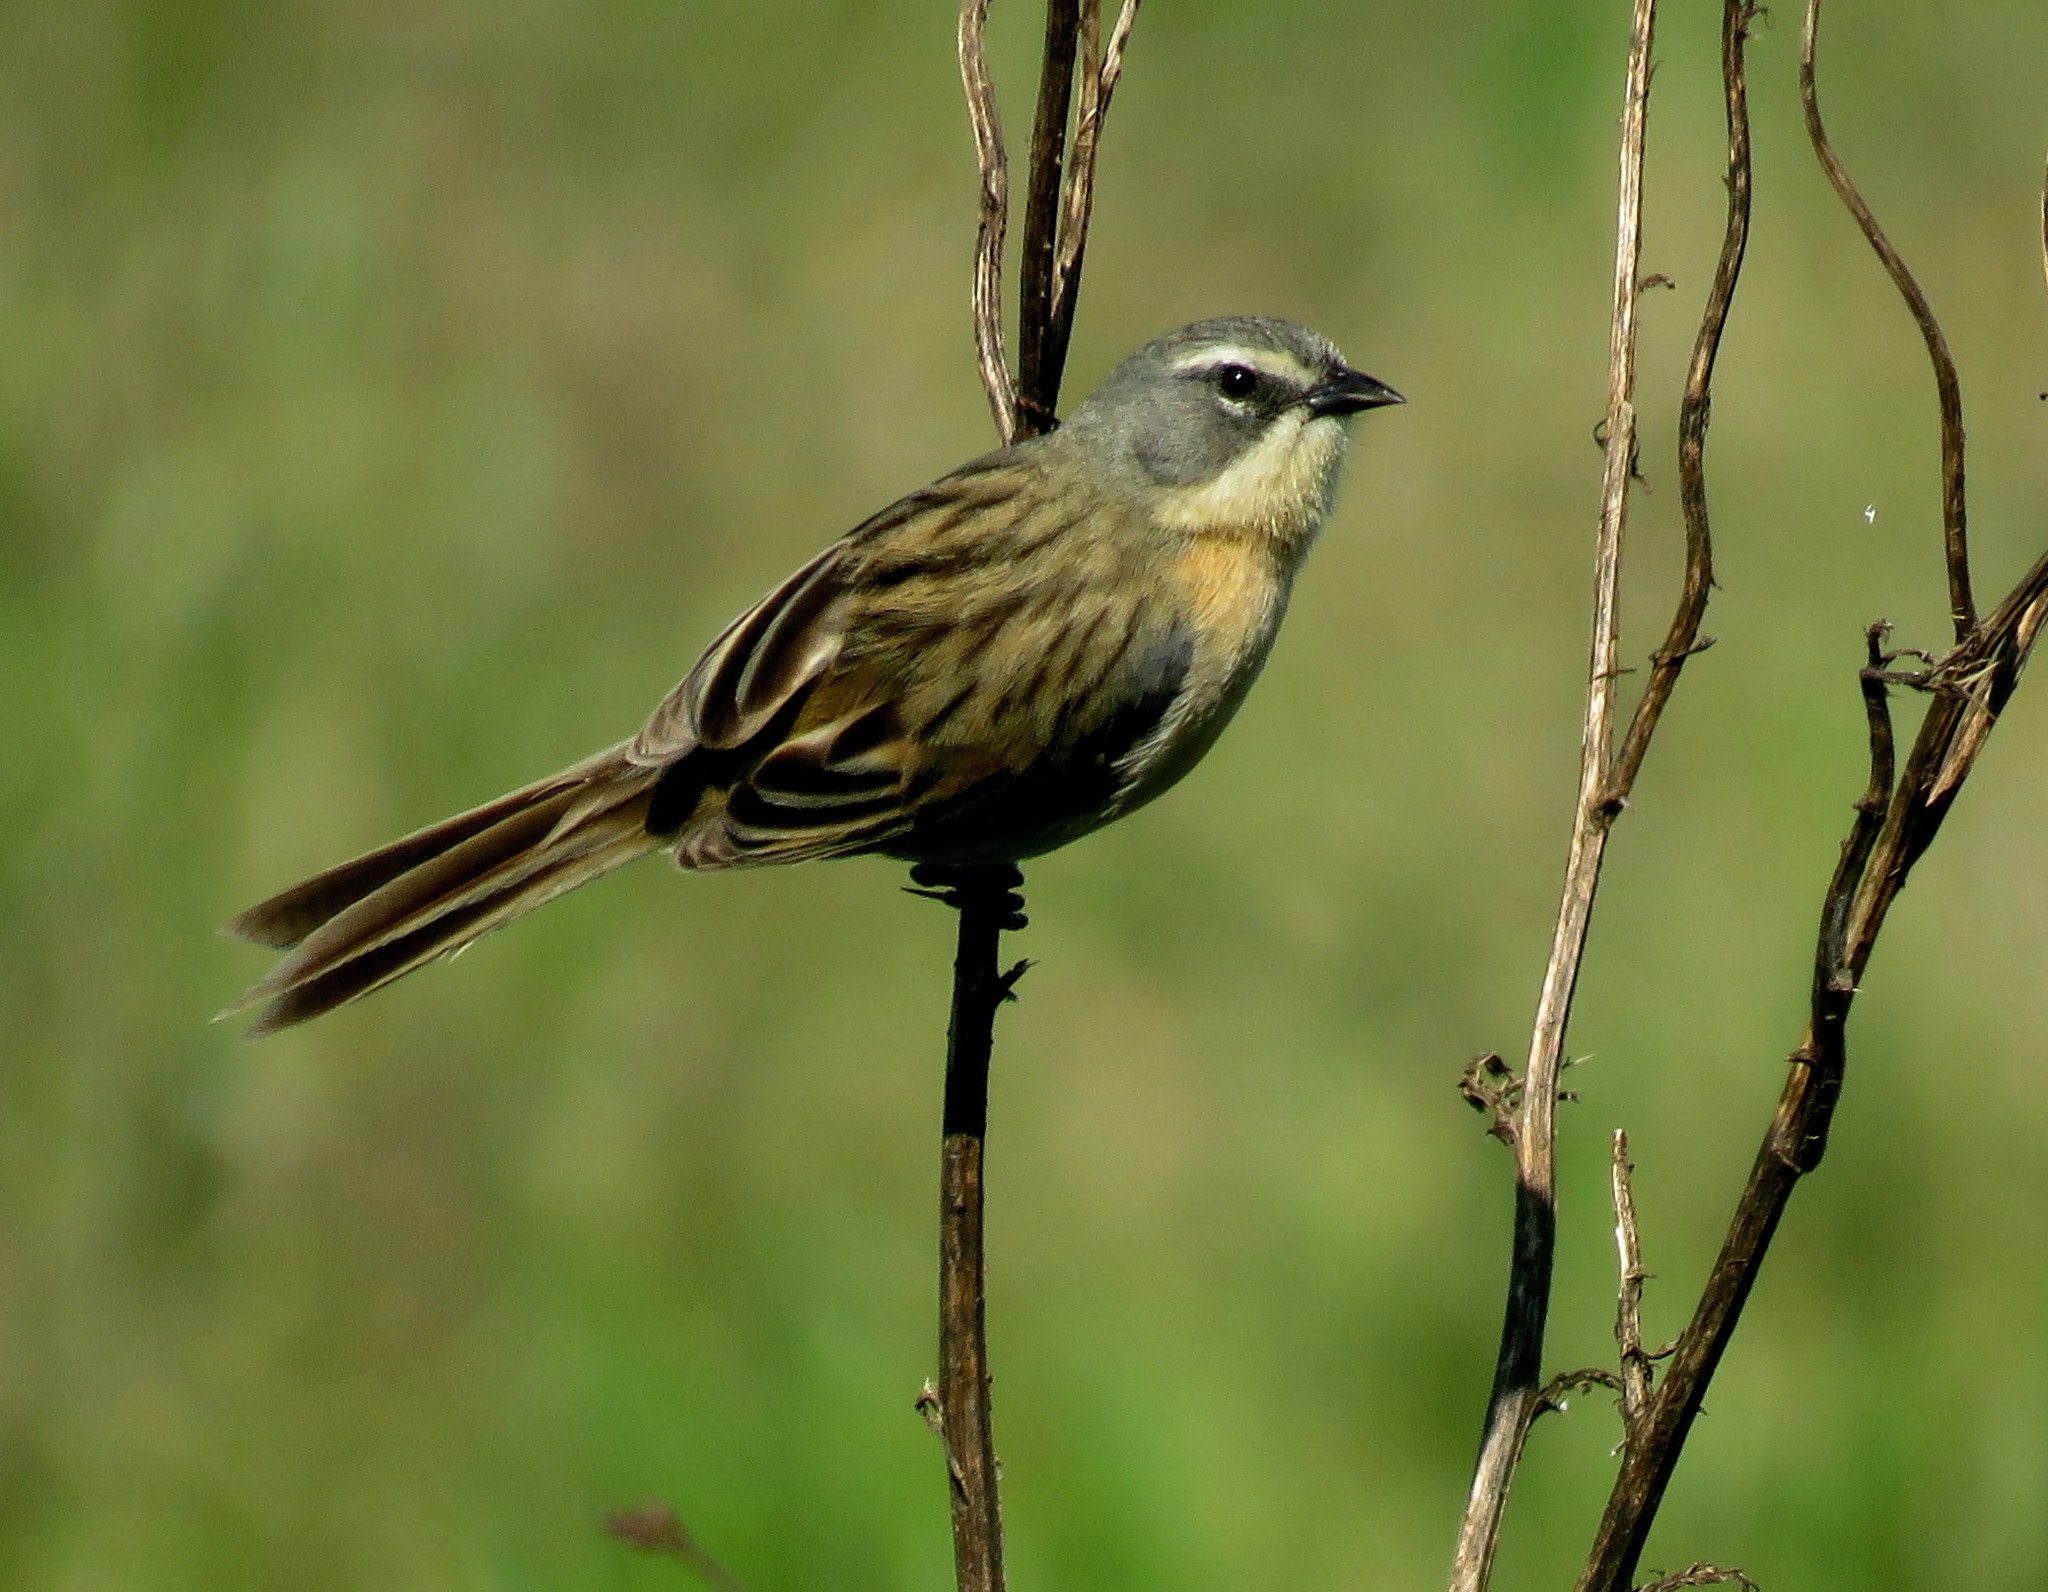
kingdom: Animalia
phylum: Chordata
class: Aves
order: Passeriformes
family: Thraupidae
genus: Donacospiza
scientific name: Donacospiza albifrons
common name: Long-tailed reed finch
